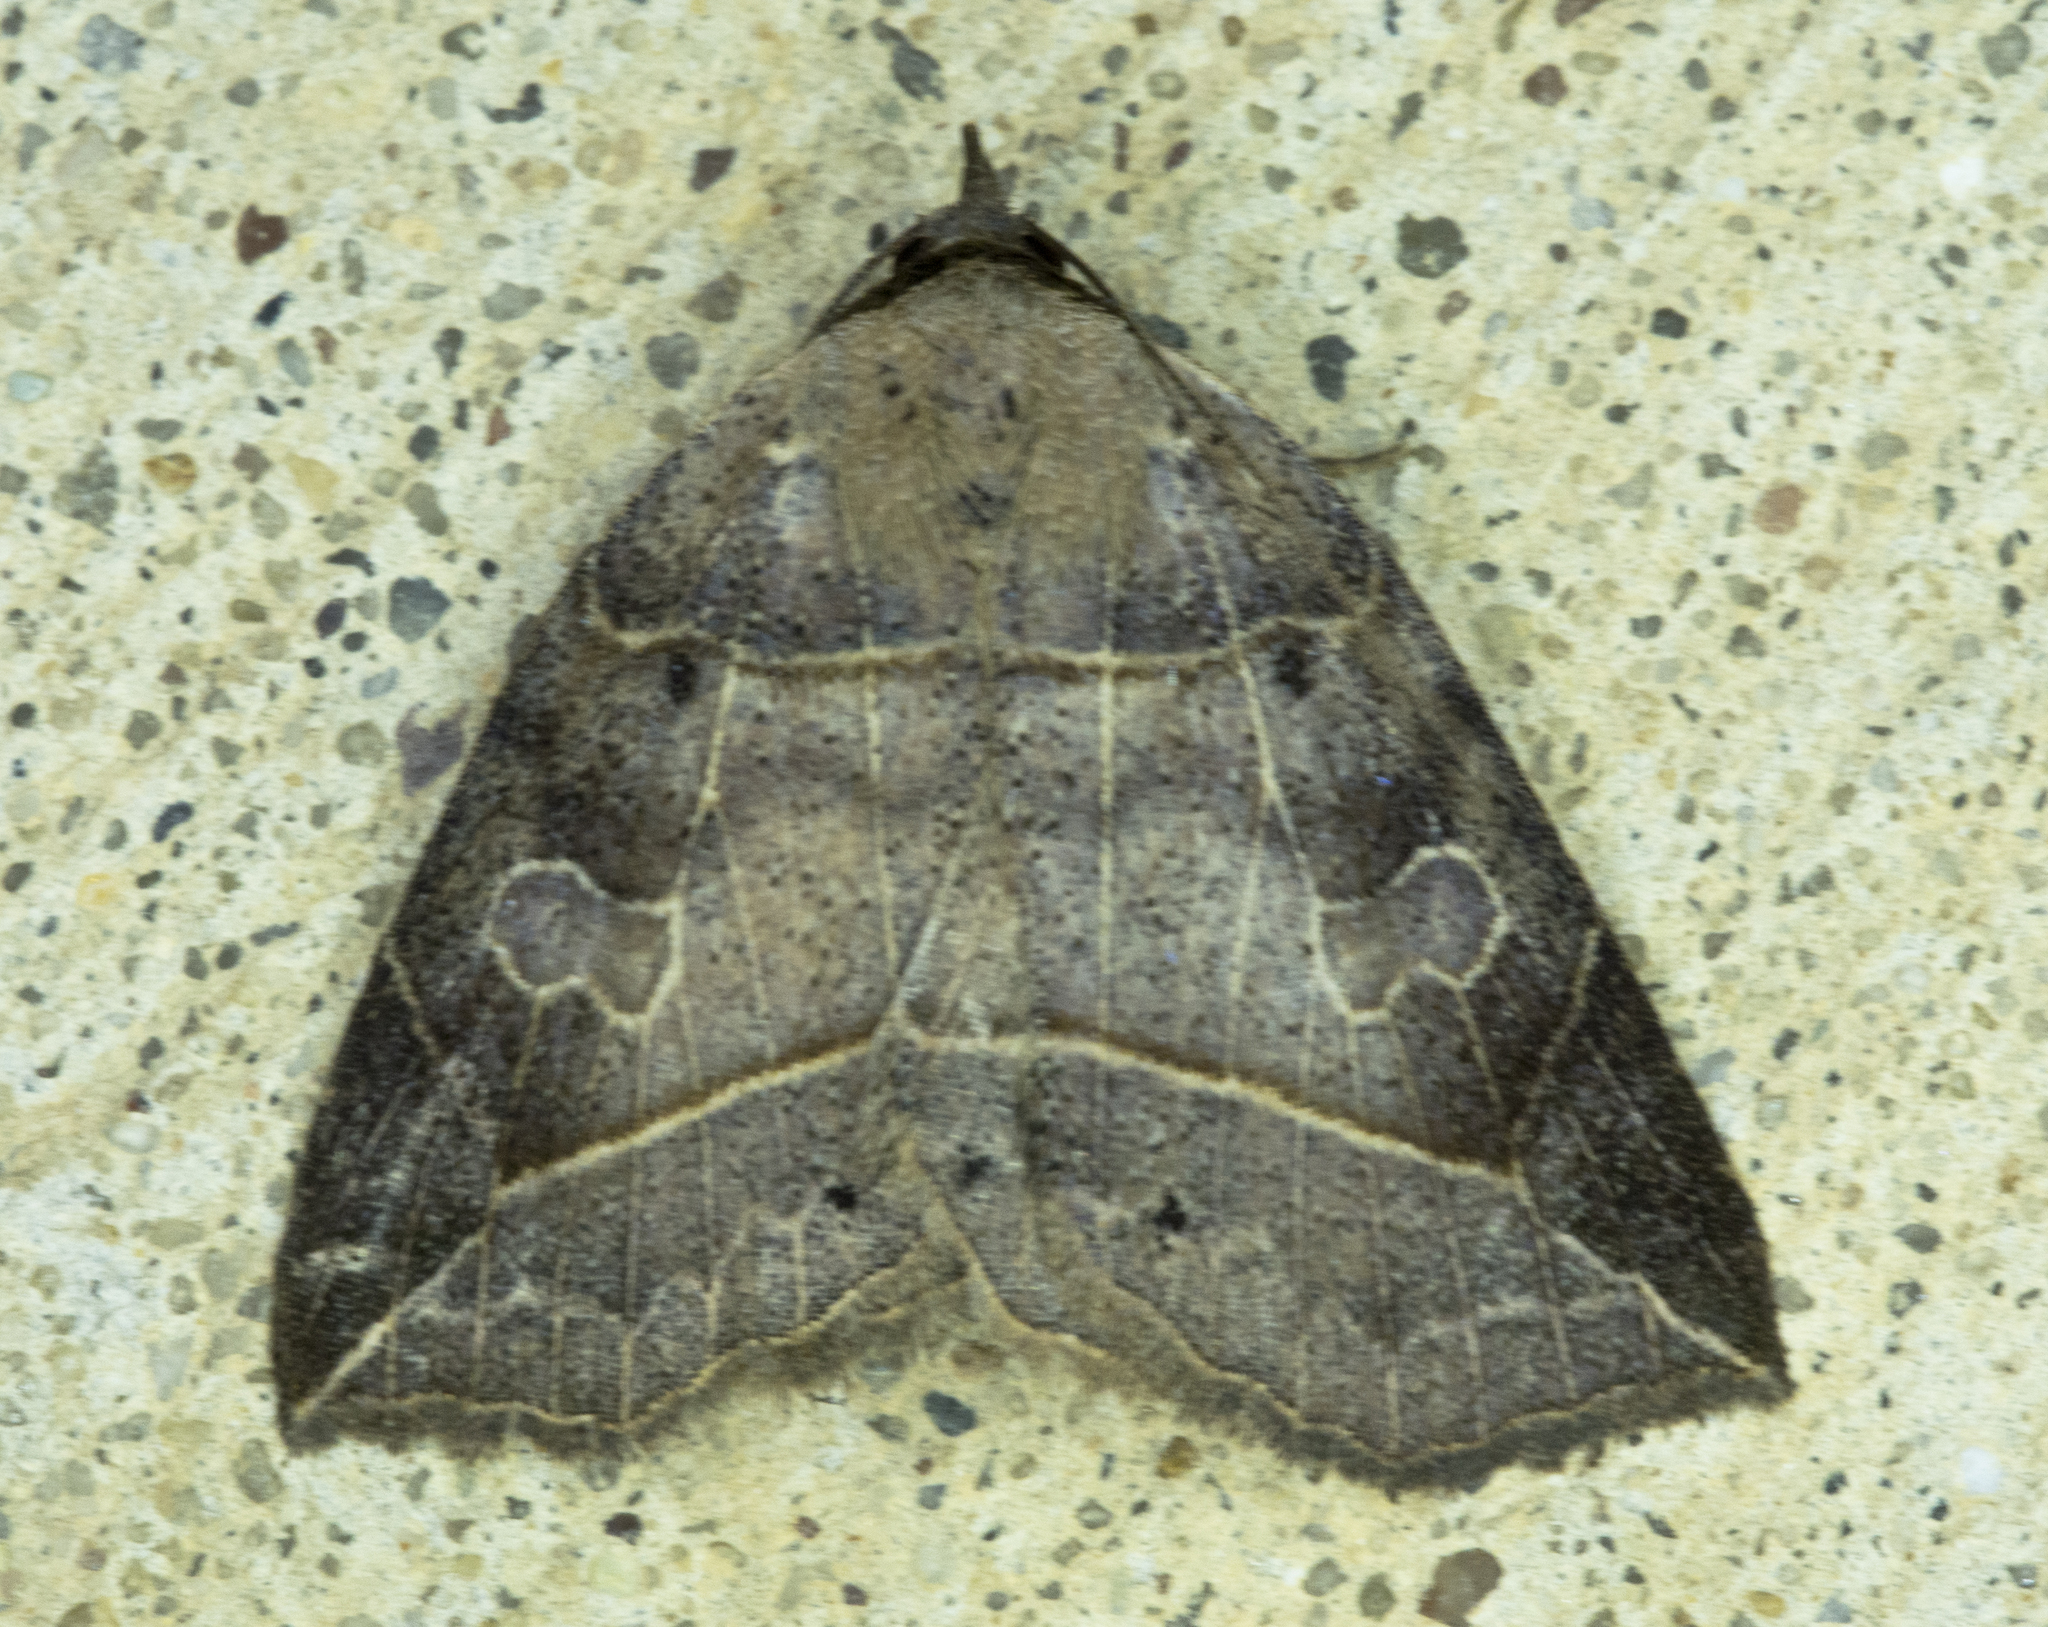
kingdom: Animalia
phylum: Arthropoda
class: Insecta
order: Lepidoptera
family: Erebidae
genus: Isogona
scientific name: Isogona tenuis
